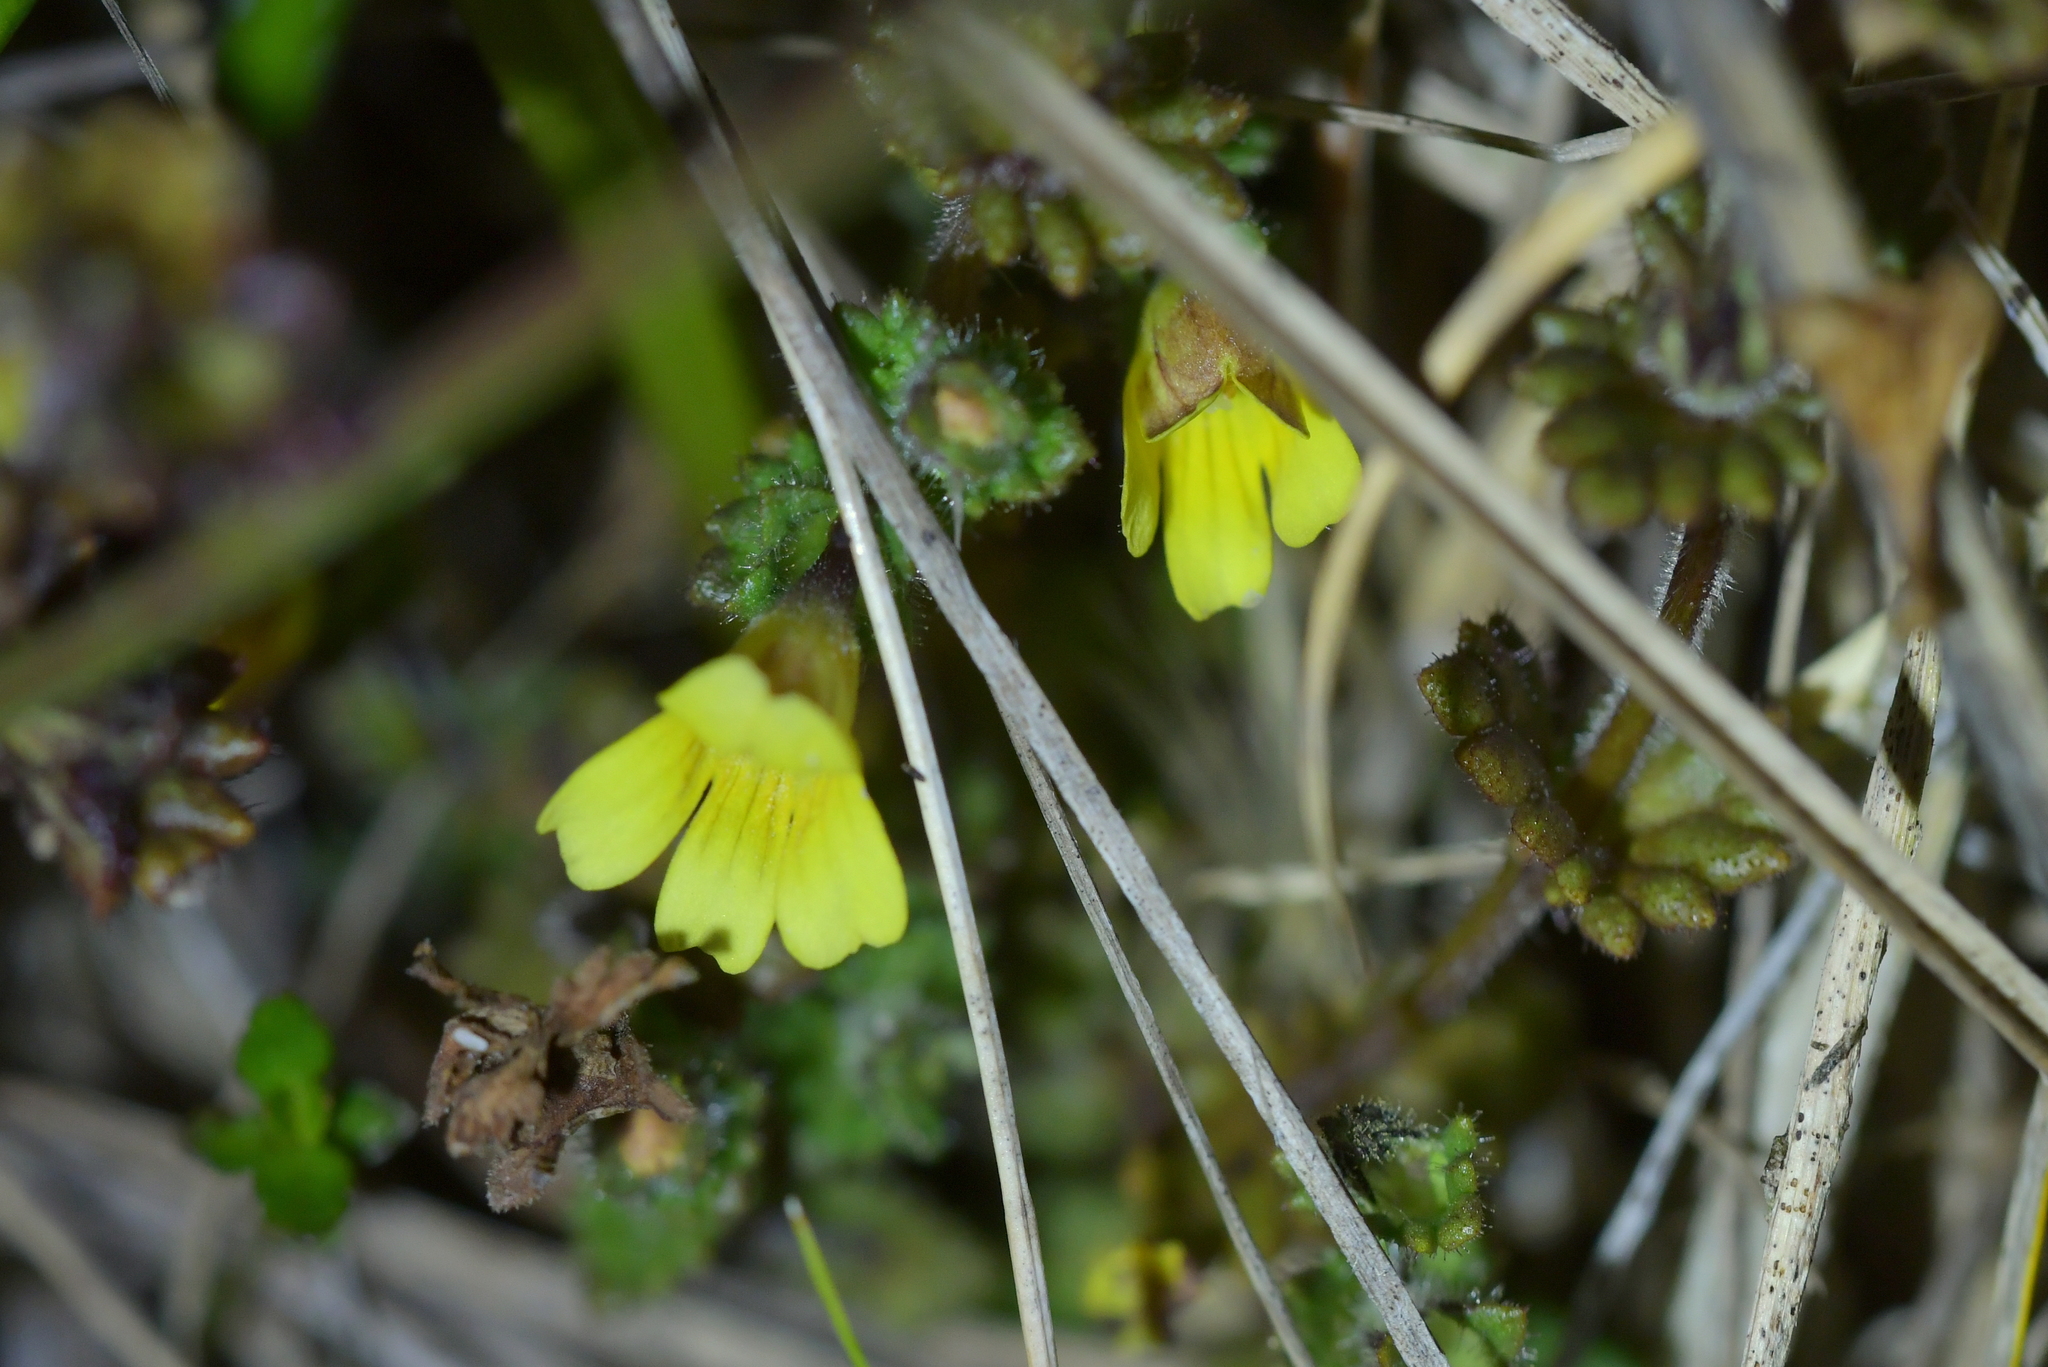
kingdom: Plantae
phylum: Tracheophyta
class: Magnoliopsida
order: Lamiales
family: Orobanchaceae
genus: Euphrasia
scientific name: Euphrasia cockayneana
